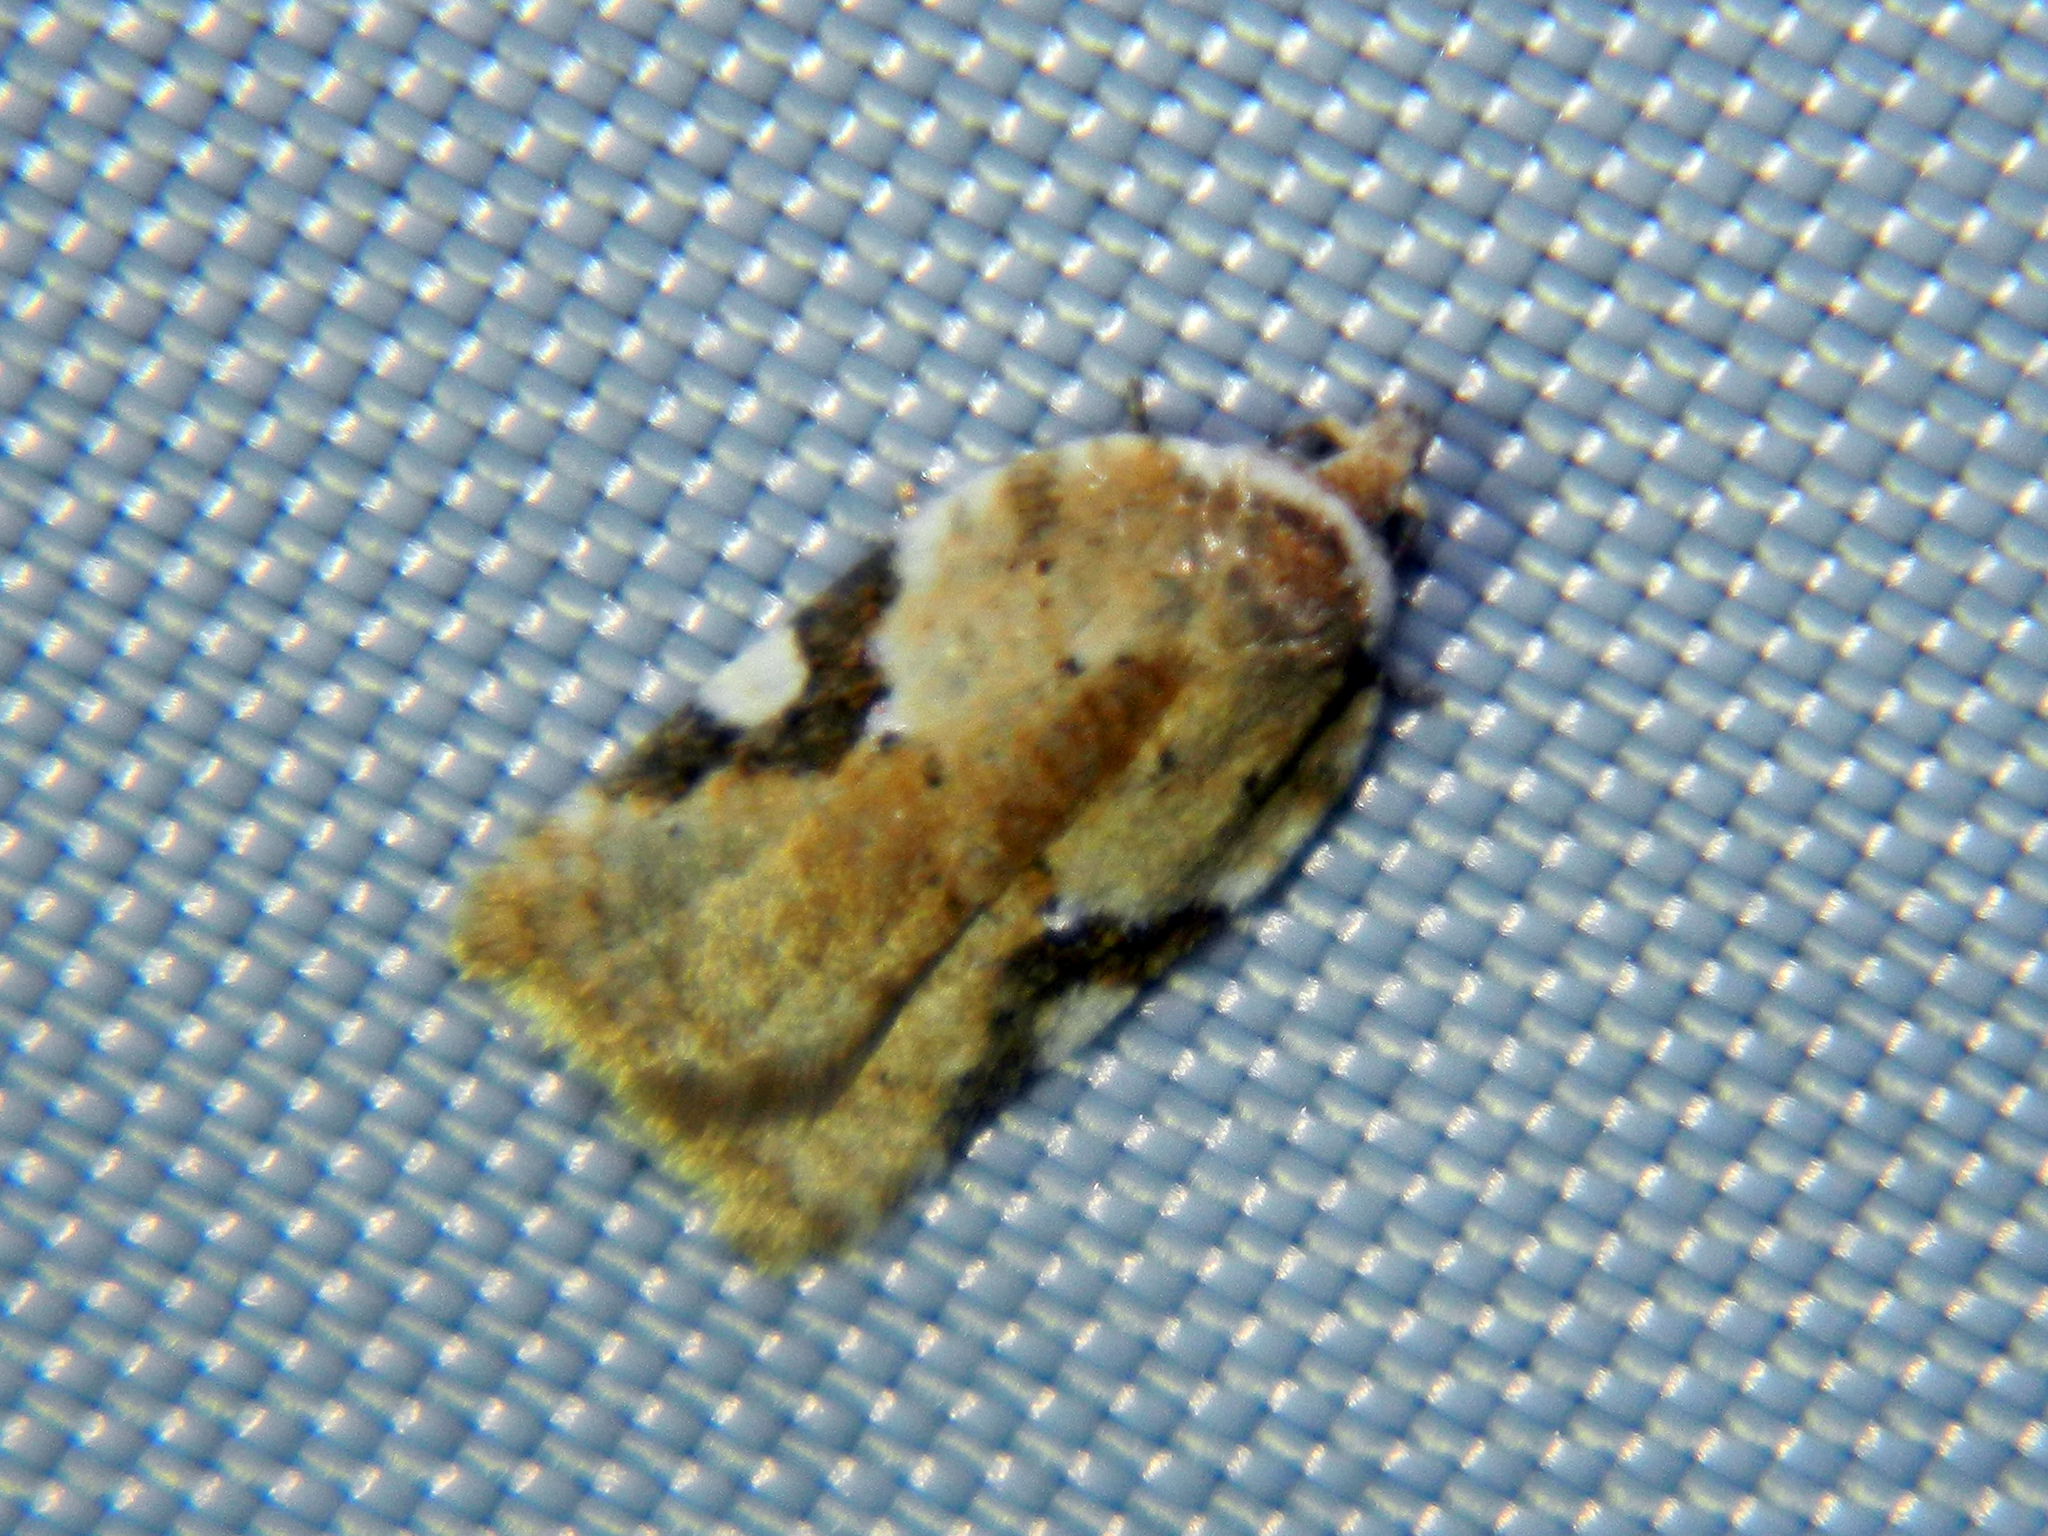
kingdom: Animalia
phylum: Arthropoda
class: Insecta
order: Lepidoptera
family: Tortricidae
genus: Acleris
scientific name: Acleris cervinana
